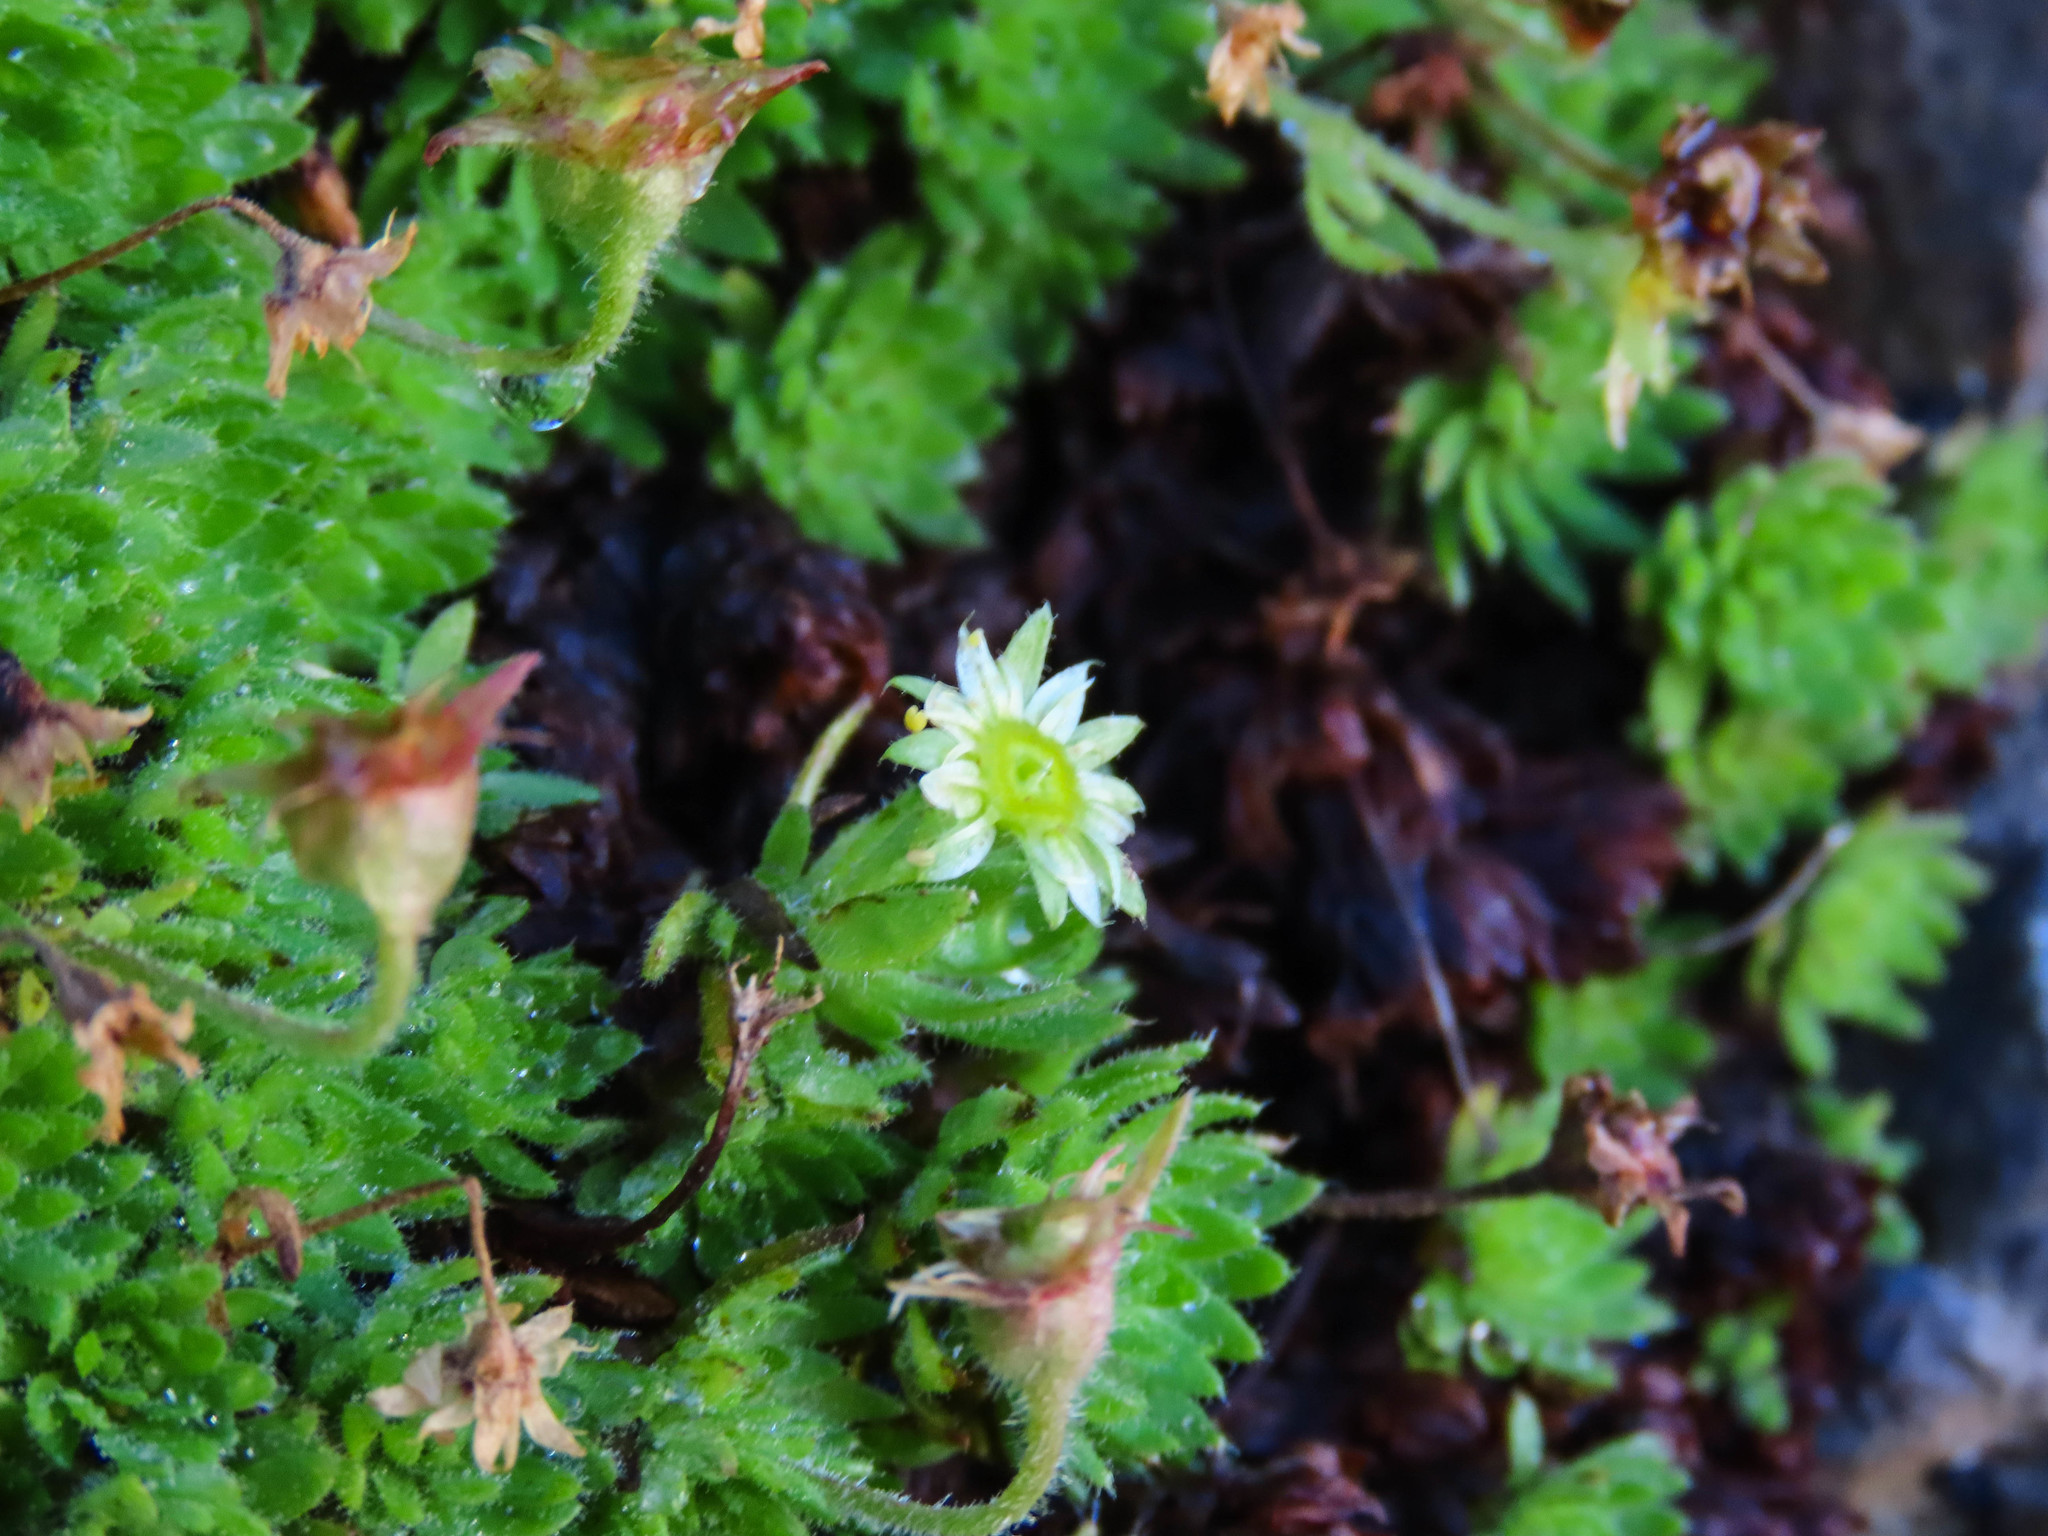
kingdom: Plantae
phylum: Tracheophyta
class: Magnoliopsida
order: Saxifragales
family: Saxifragaceae
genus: Saxifraga
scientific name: Saxifraga sedoides
